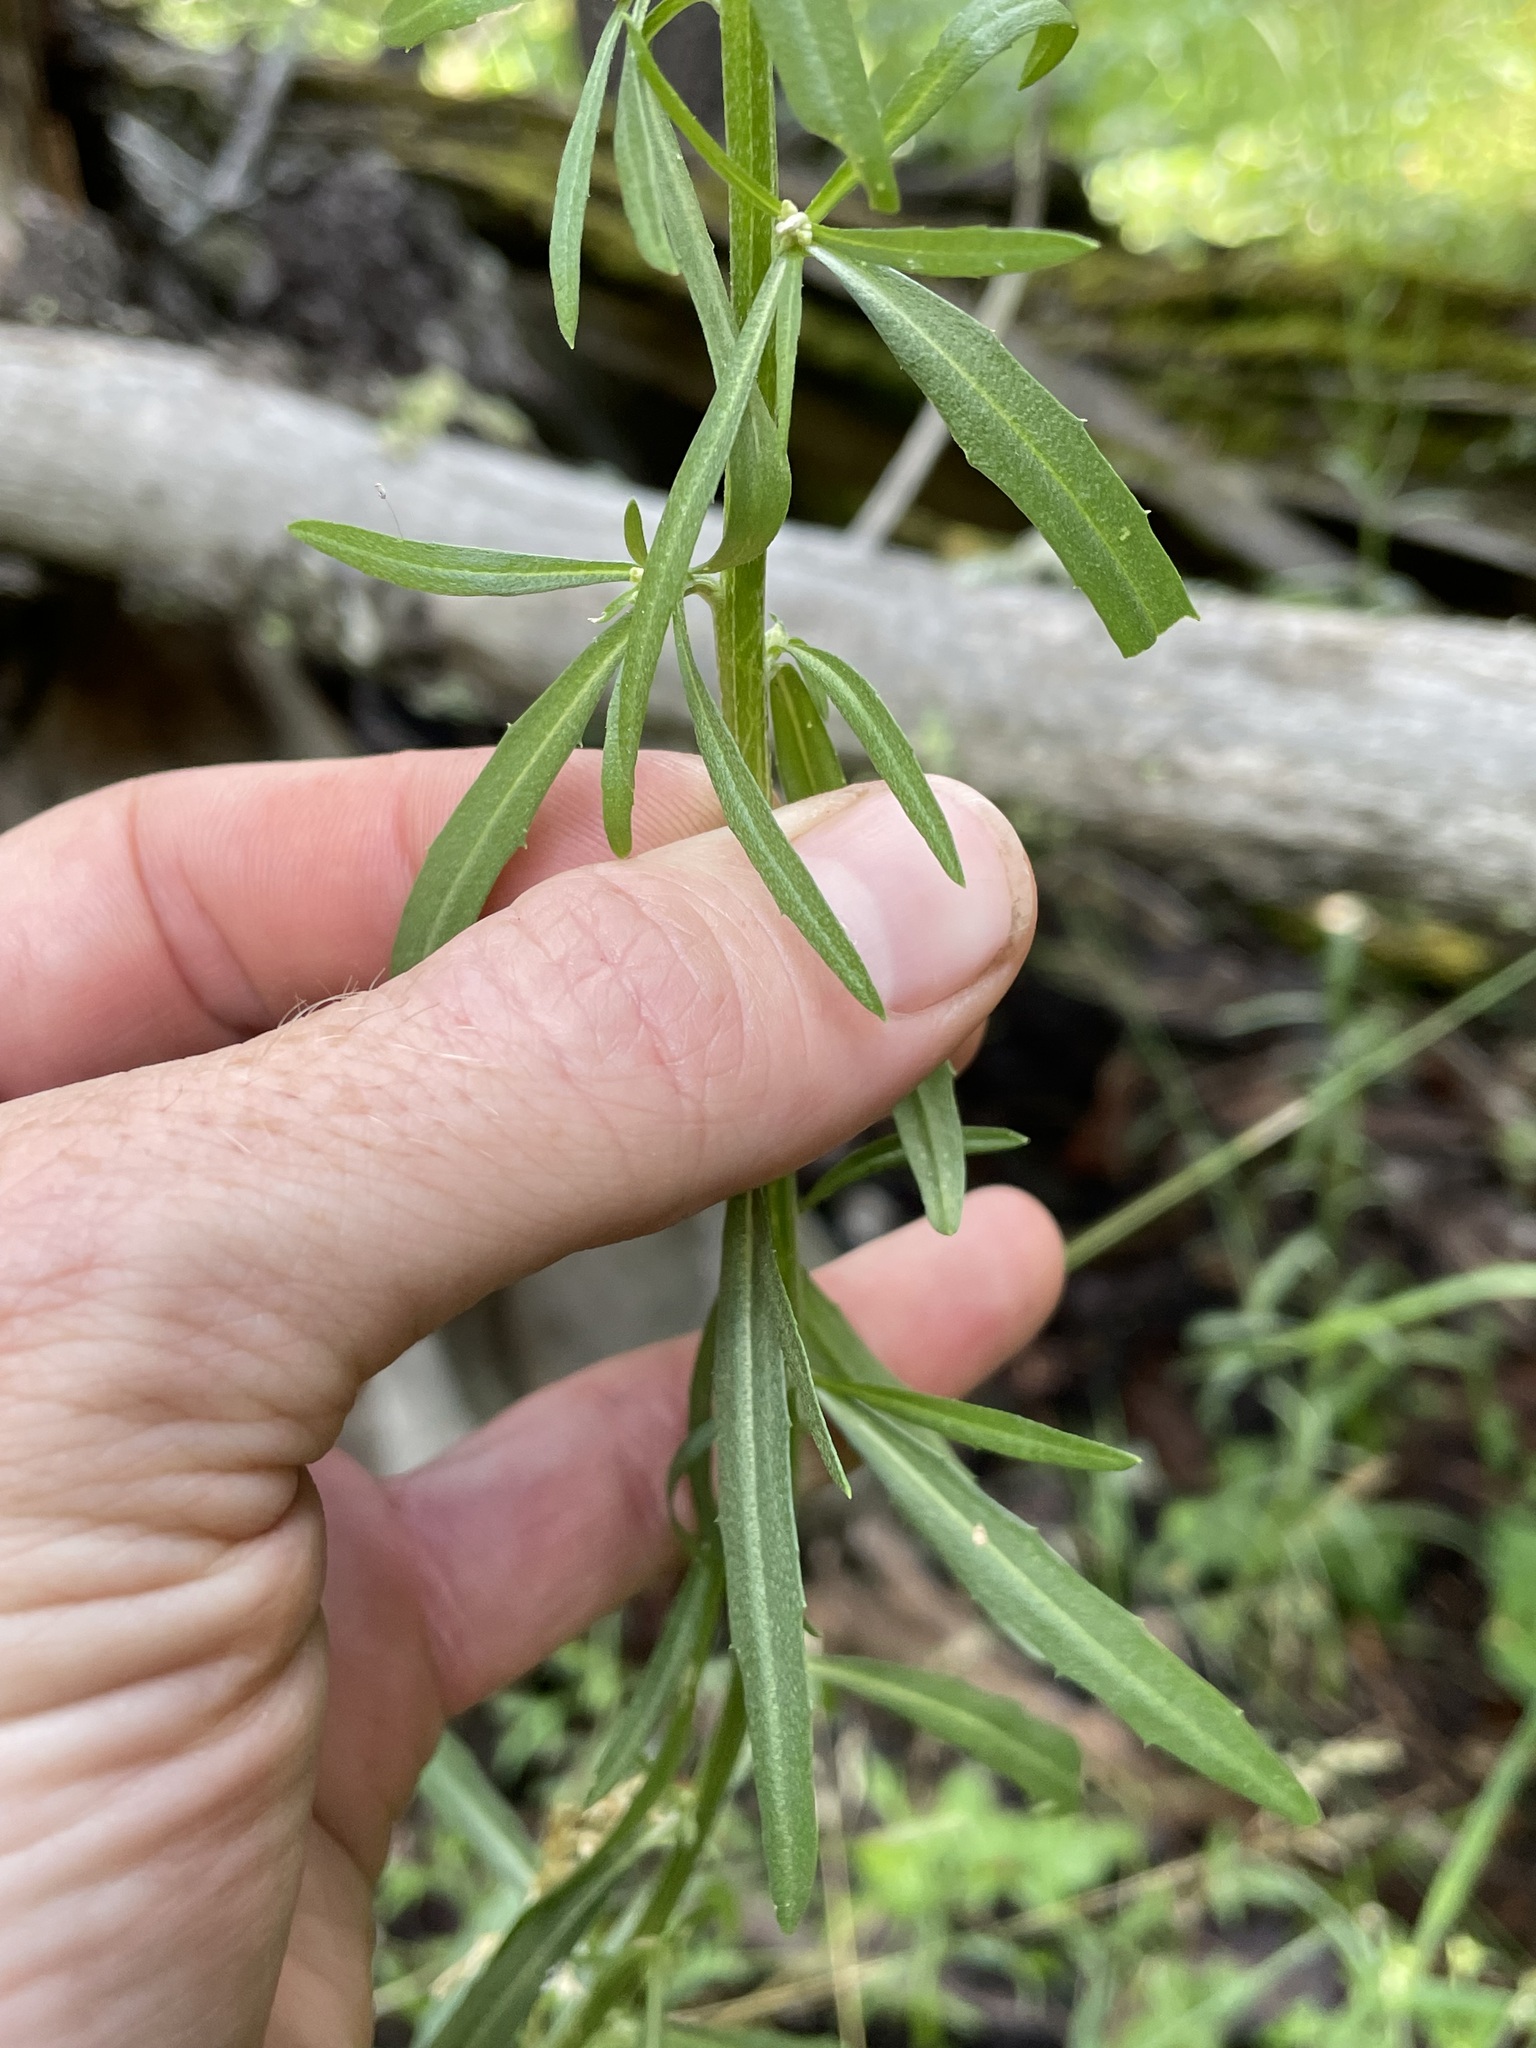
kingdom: Plantae
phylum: Tracheophyta
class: Magnoliopsida
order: Brassicales
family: Brassicaceae
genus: Erysimum
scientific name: Erysimum capitatum
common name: Western wallflower
